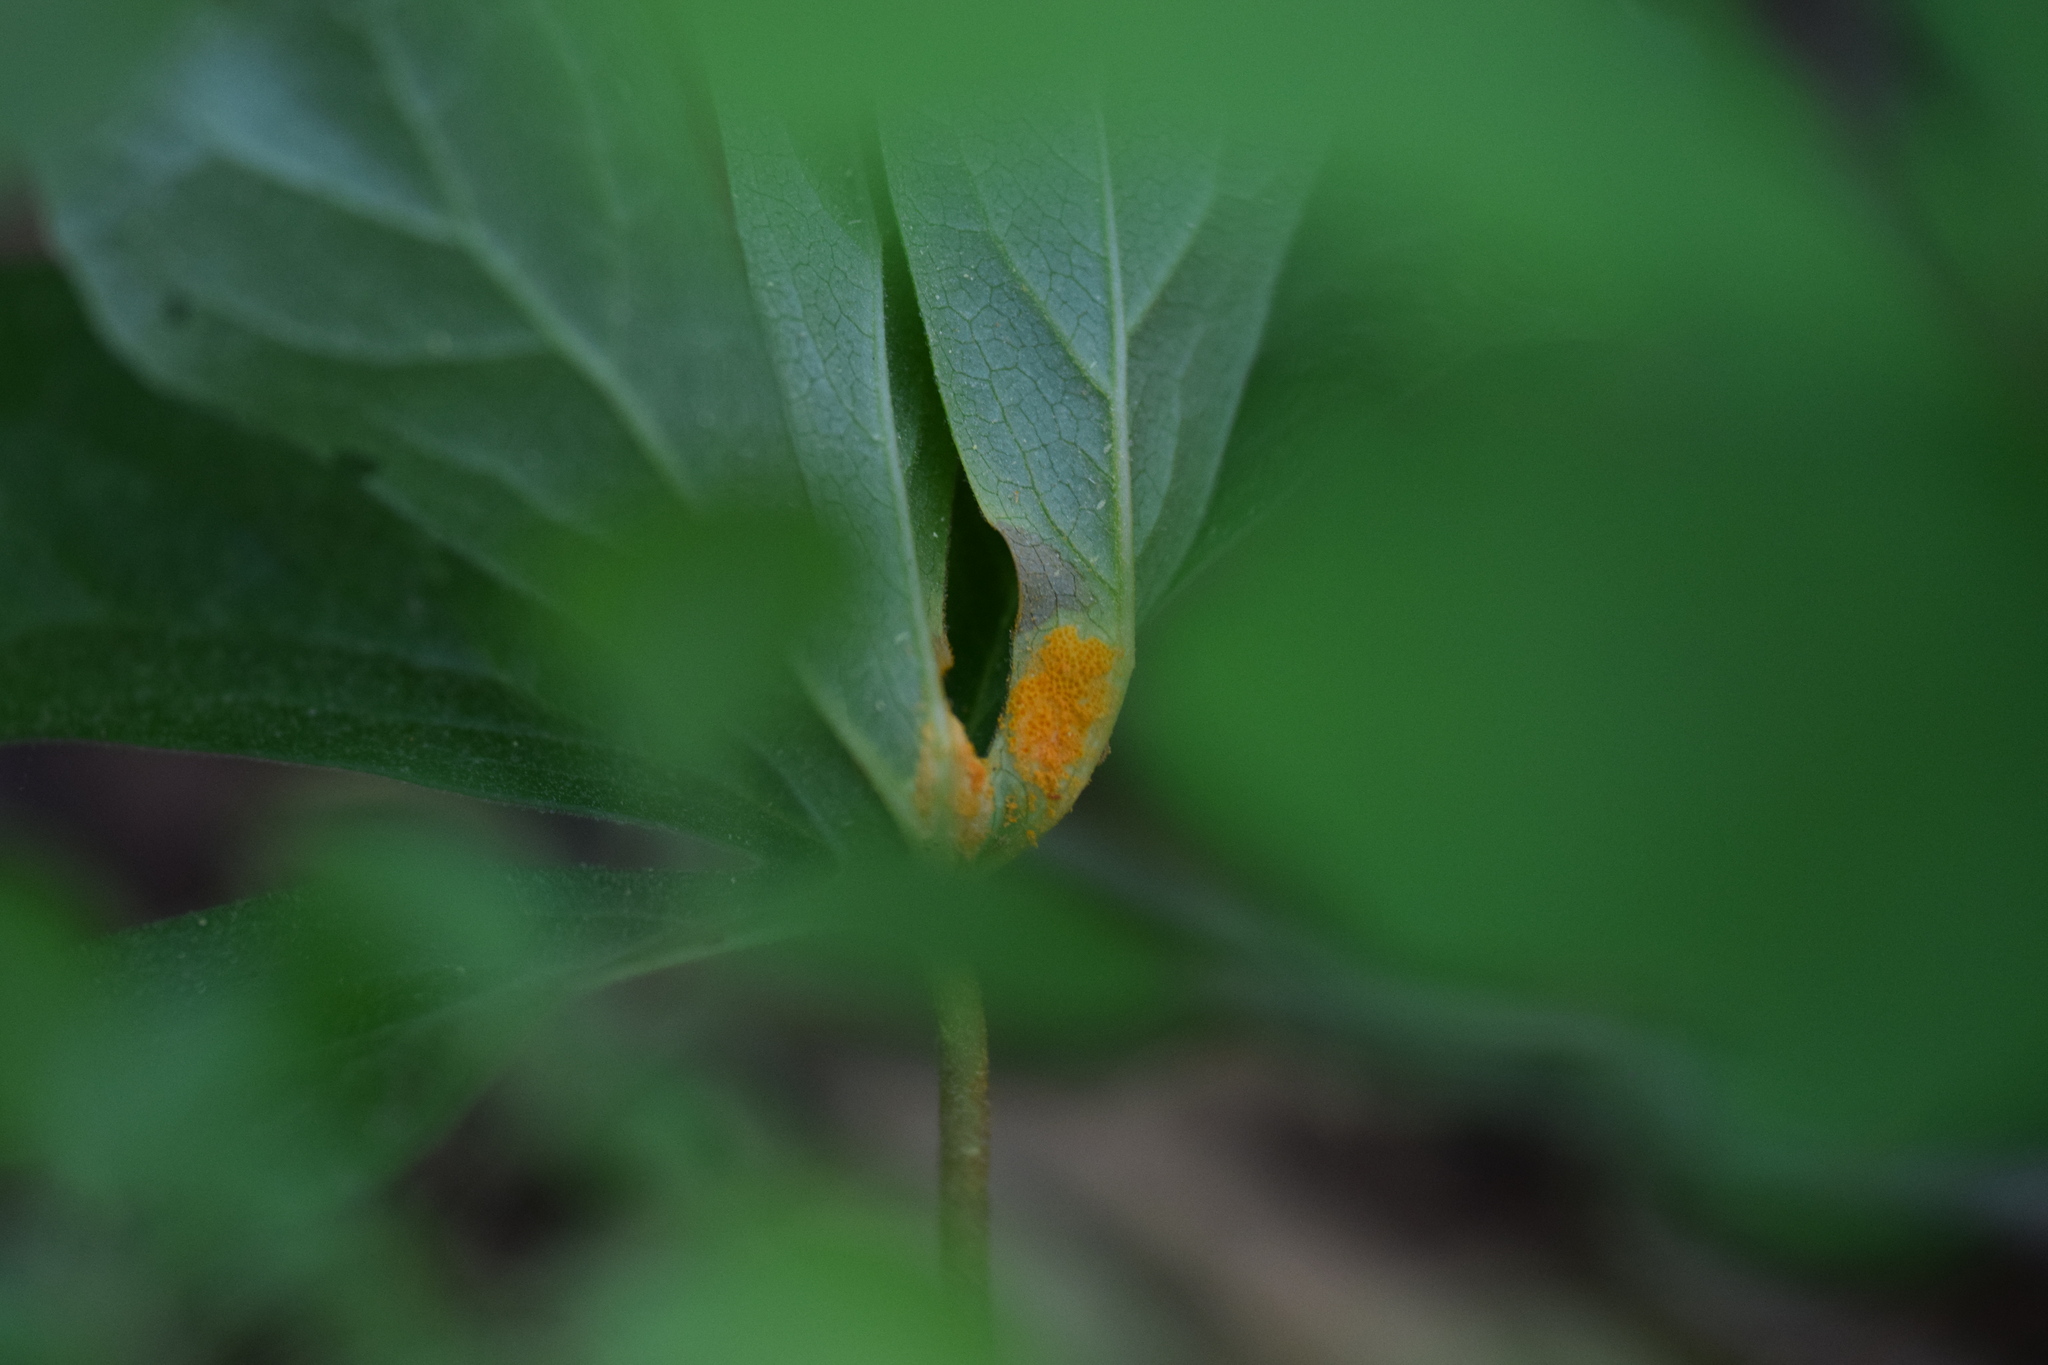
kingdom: Fungi
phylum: Basidiomycota
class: Pucciniomycetes
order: Pucciniales
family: Pucciniaceae
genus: Puccinia
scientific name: Puccinia podophylli
